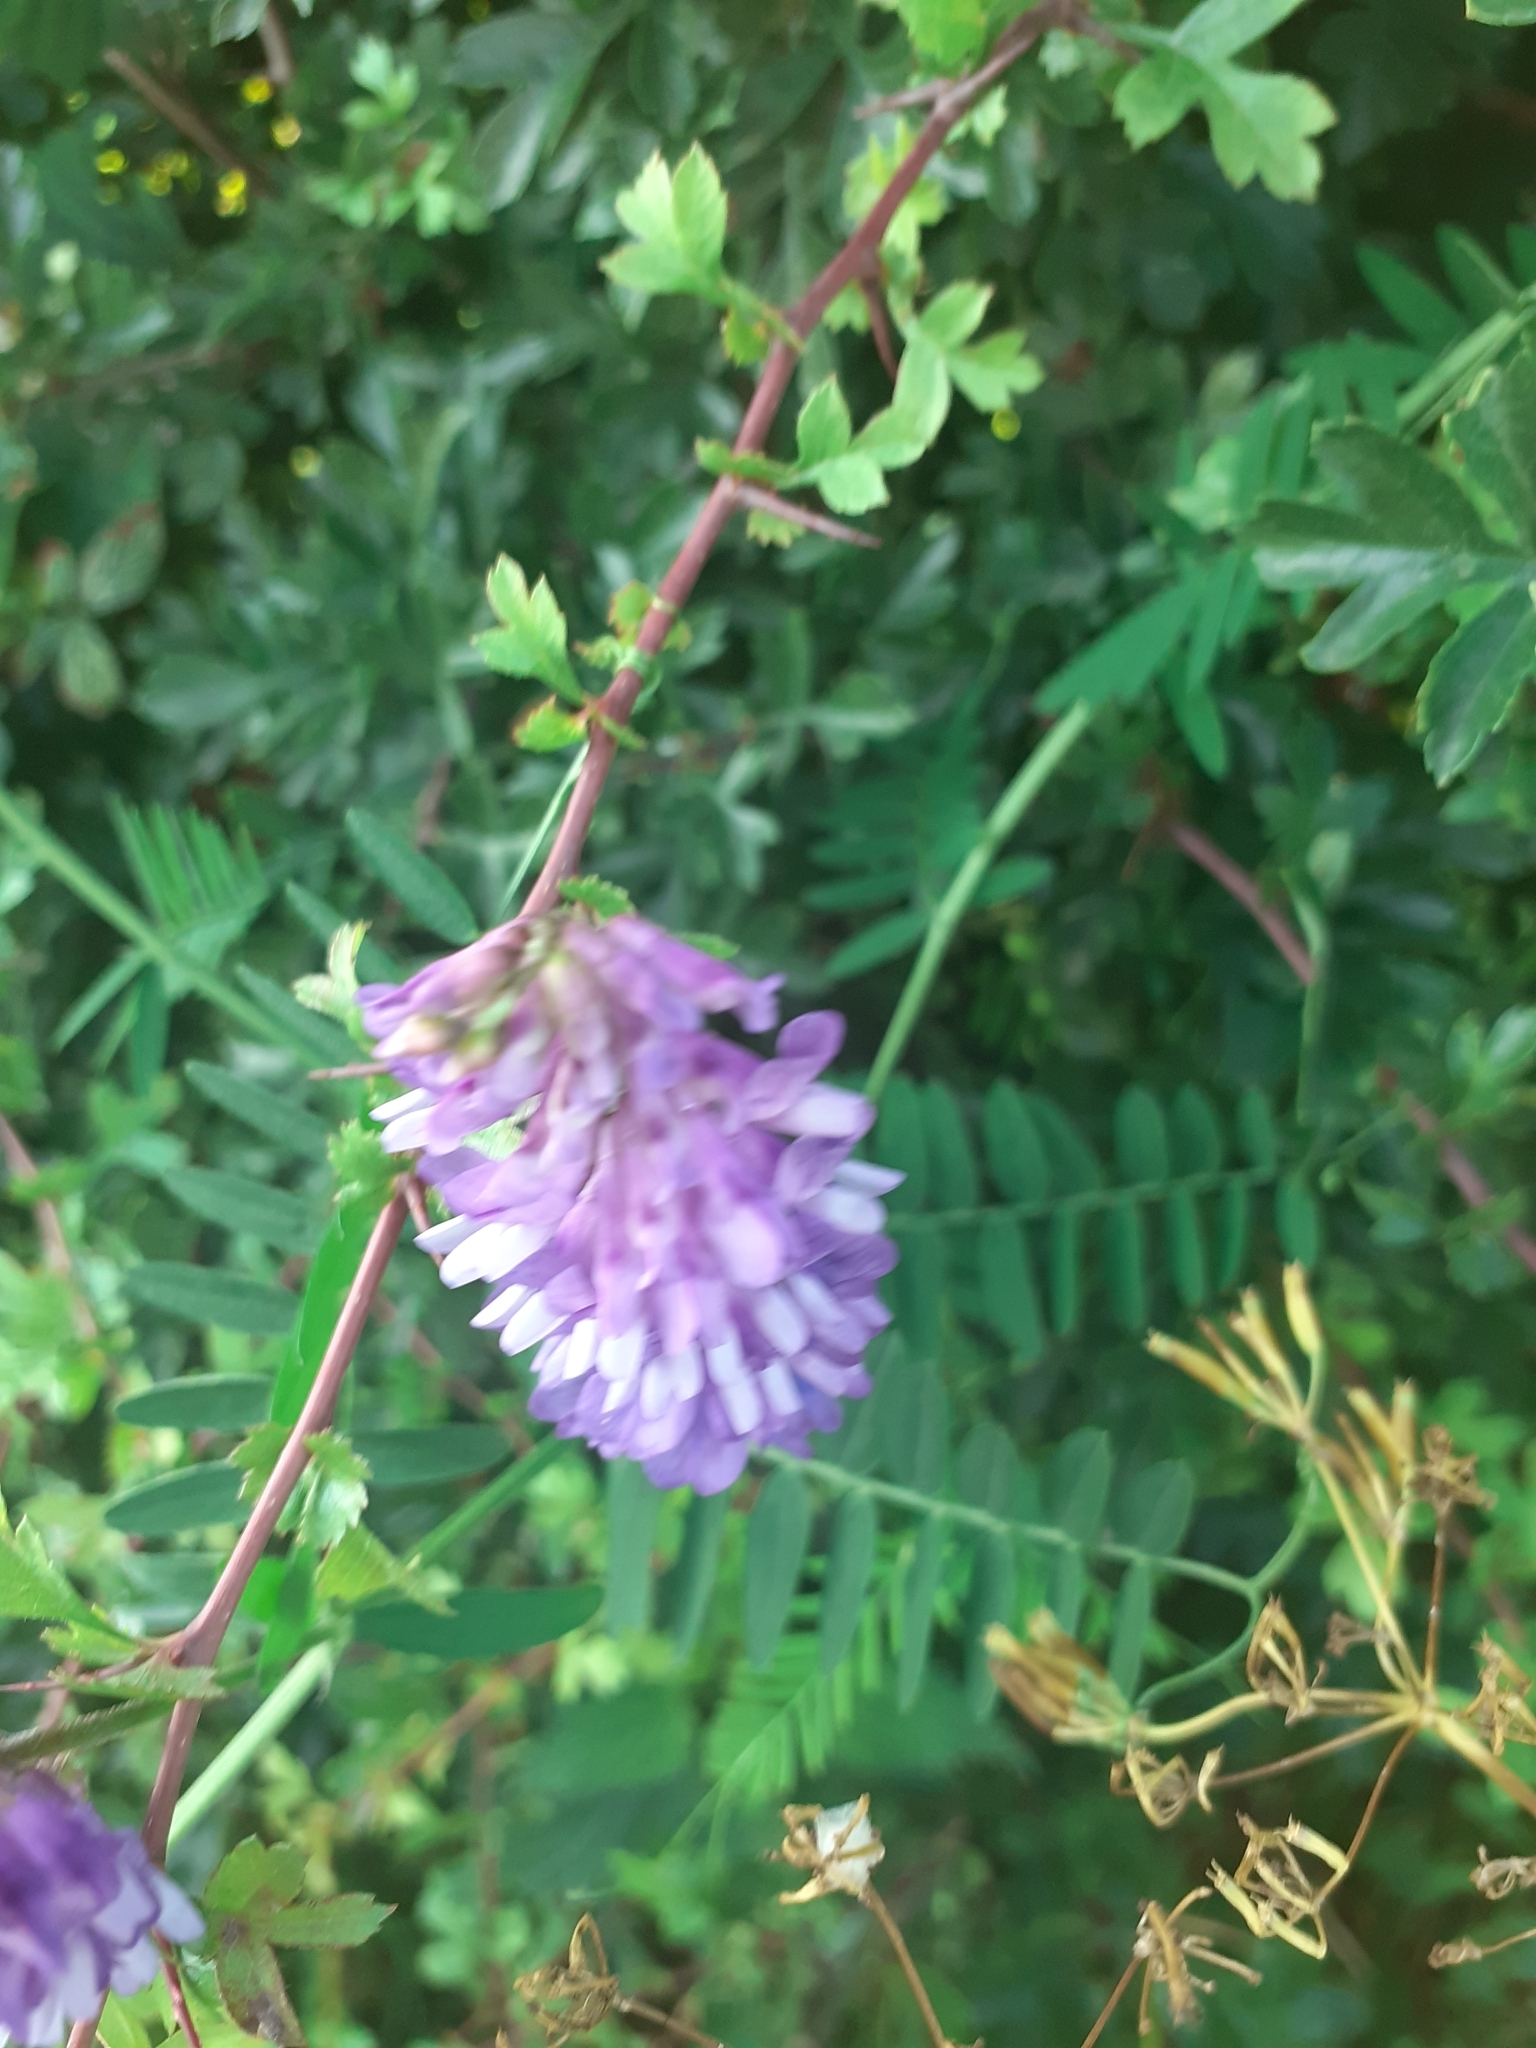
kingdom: Plantae
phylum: Tracheophyta
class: Magnoliopsida
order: Fabales
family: Fabaceae
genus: Vicia
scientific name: Vicia cracca
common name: Bird vetch
